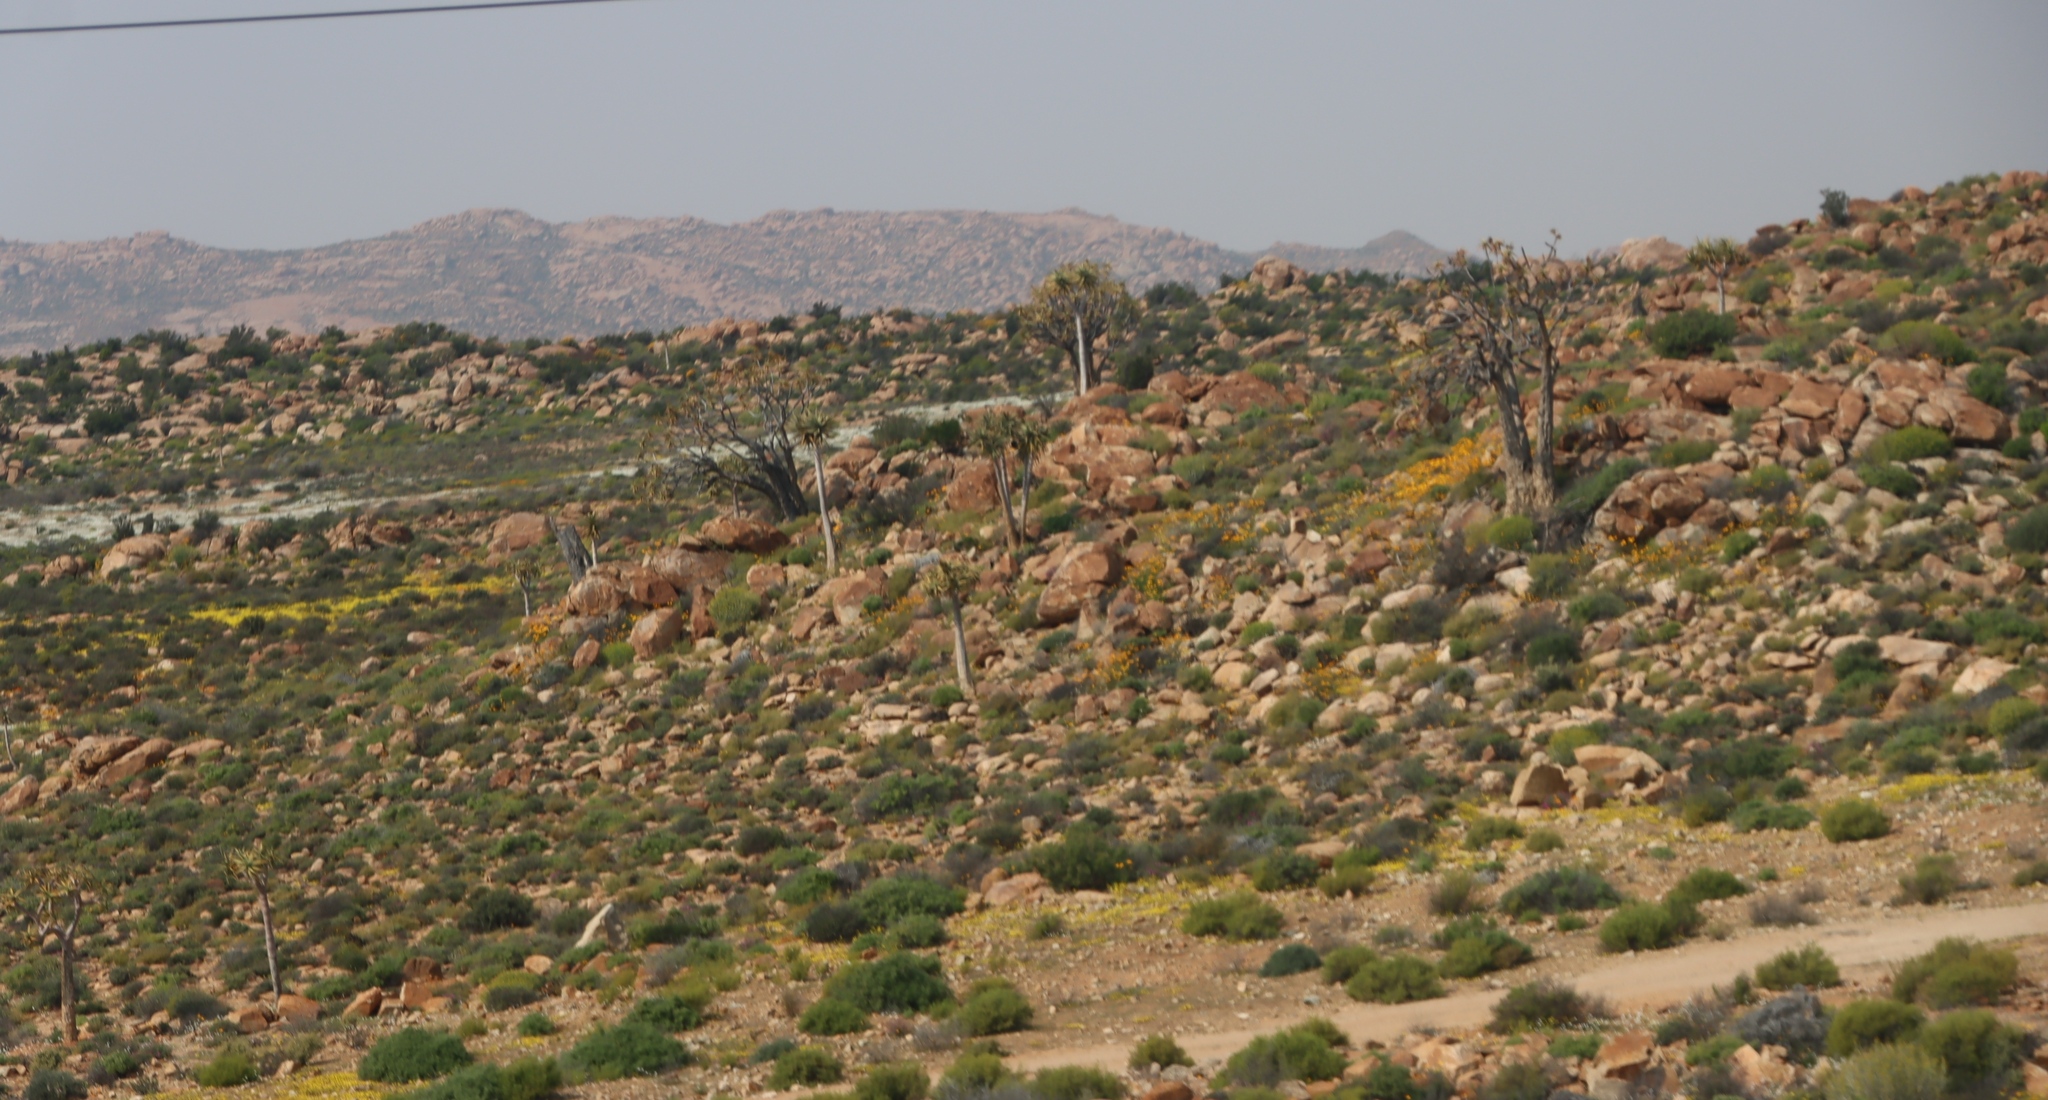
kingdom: Plantae
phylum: Tracheophyta
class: Liliopsida
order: Asparagales
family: Asphodelaceae
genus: Aloidendron
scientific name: Aloidendron dichotomum
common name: Quiver tree
